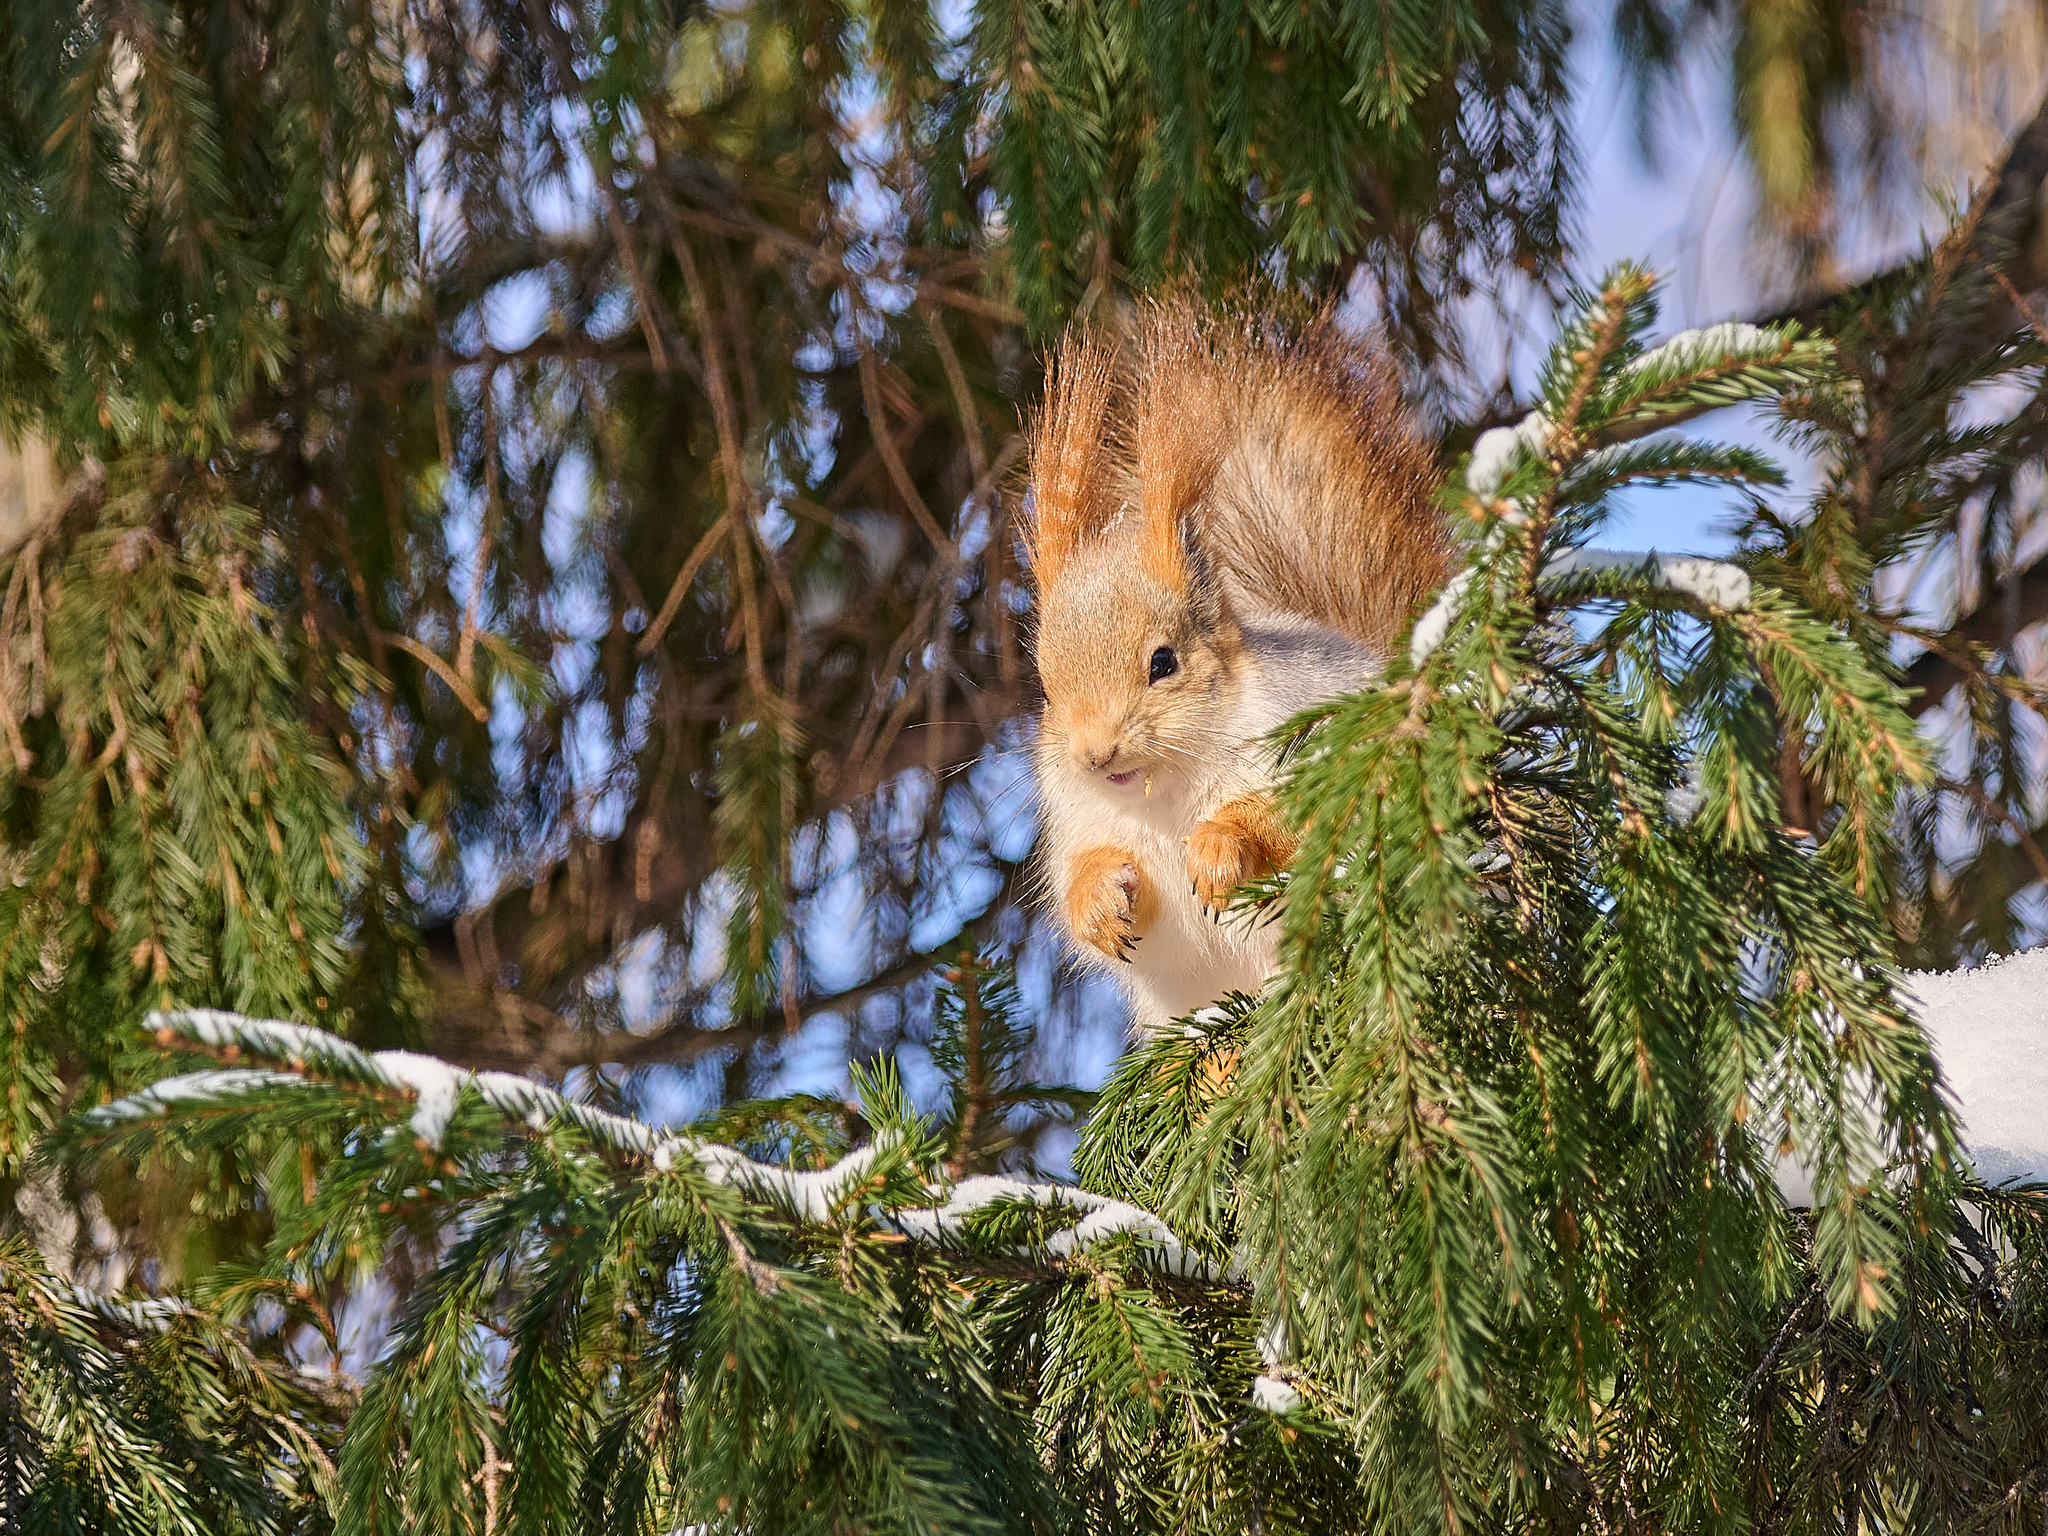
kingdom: Animalia
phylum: Chordata
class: Mammalia
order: Rodentia
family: Sciuridae
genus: Sciurus
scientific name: Sciurus vulgaris
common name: Eurasian red squirrel
